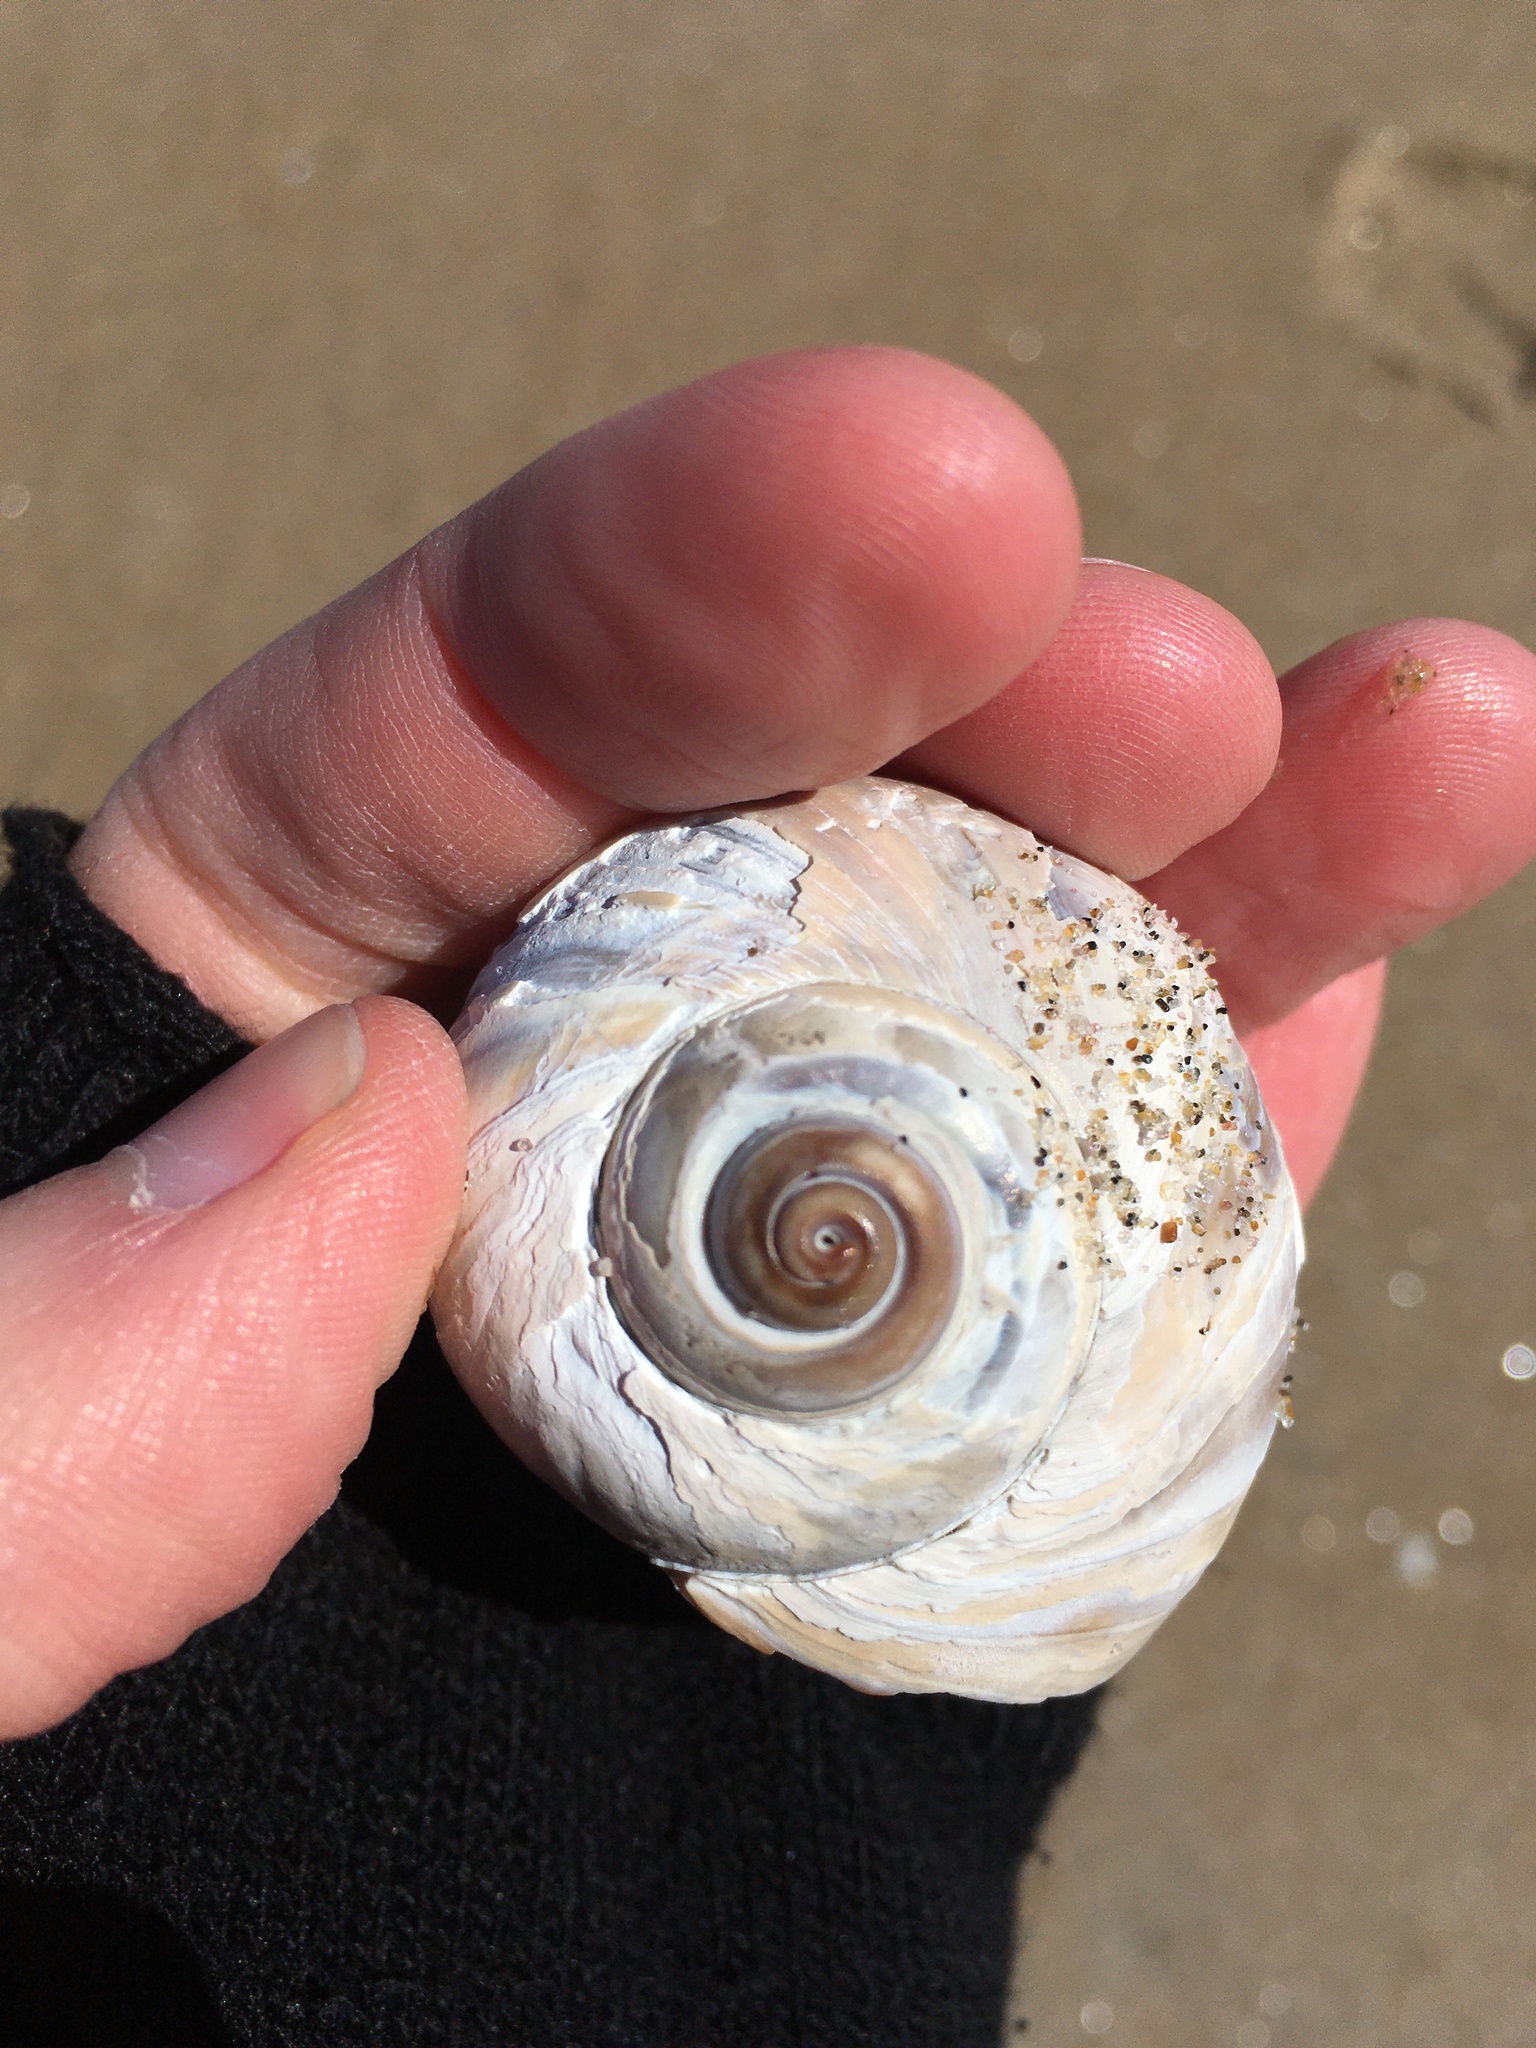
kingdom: Animalia
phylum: Mollusca
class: Gastropoda
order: Littorinimorpha
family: Naticidae
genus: Euspira
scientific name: Euspira heros
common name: Common northern moonsnail
